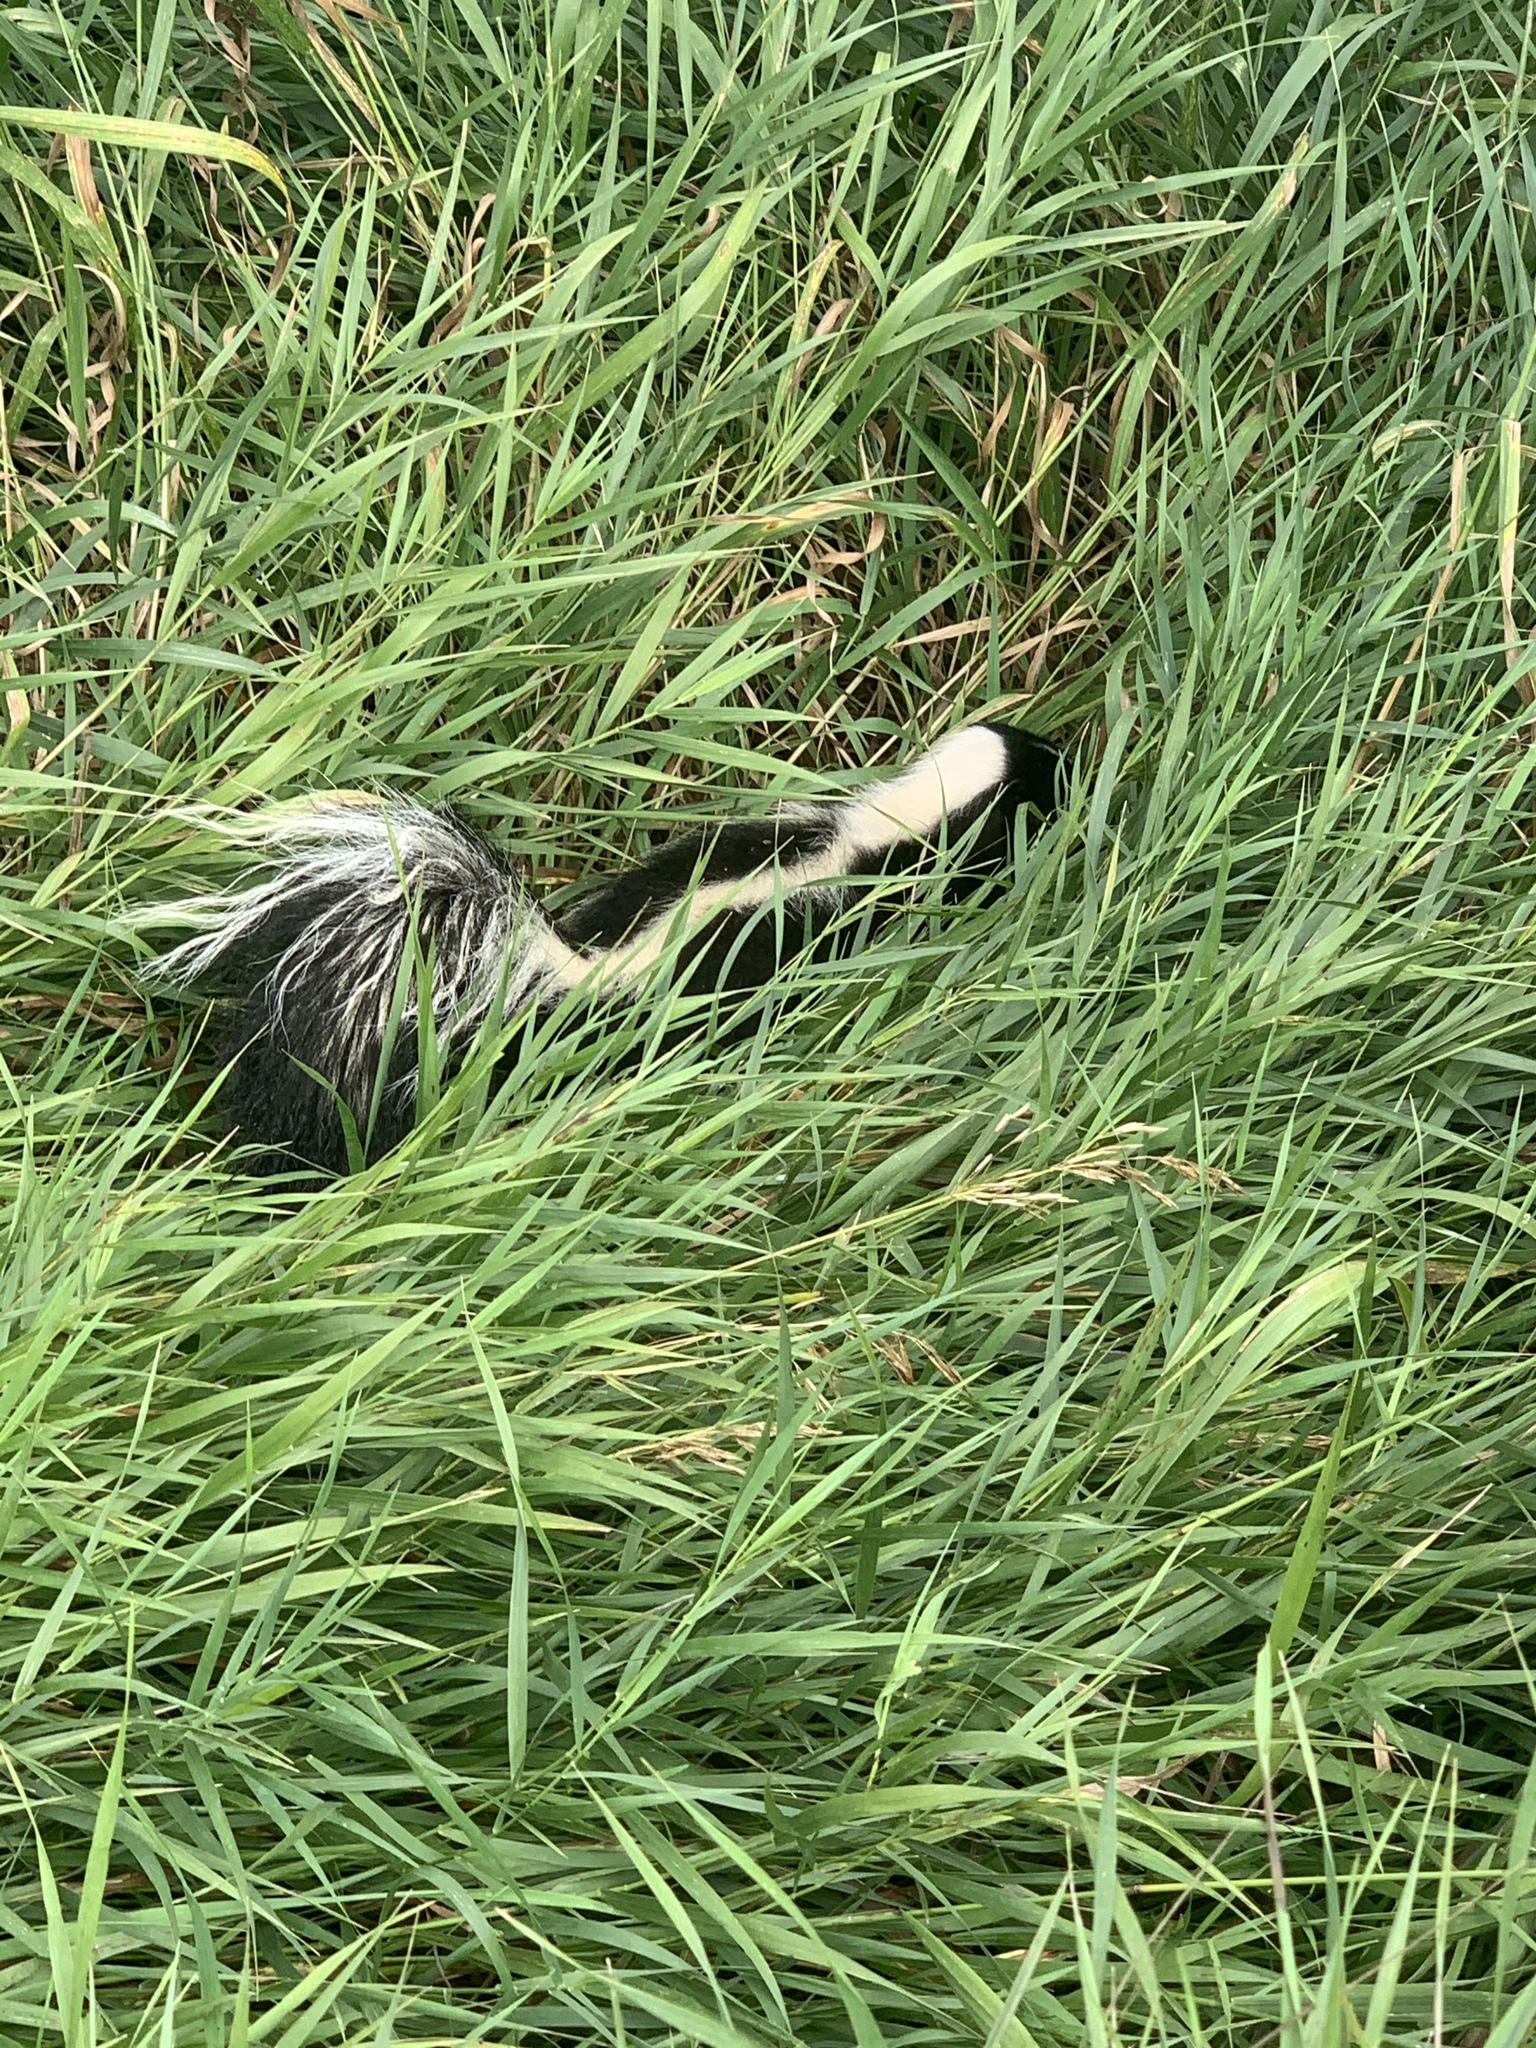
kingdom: Animalia
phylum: Chordata
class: Mammalia
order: Carnivora
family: Mephitidae
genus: Mephitis
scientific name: Mephitis mephitis
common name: Striped skunk
